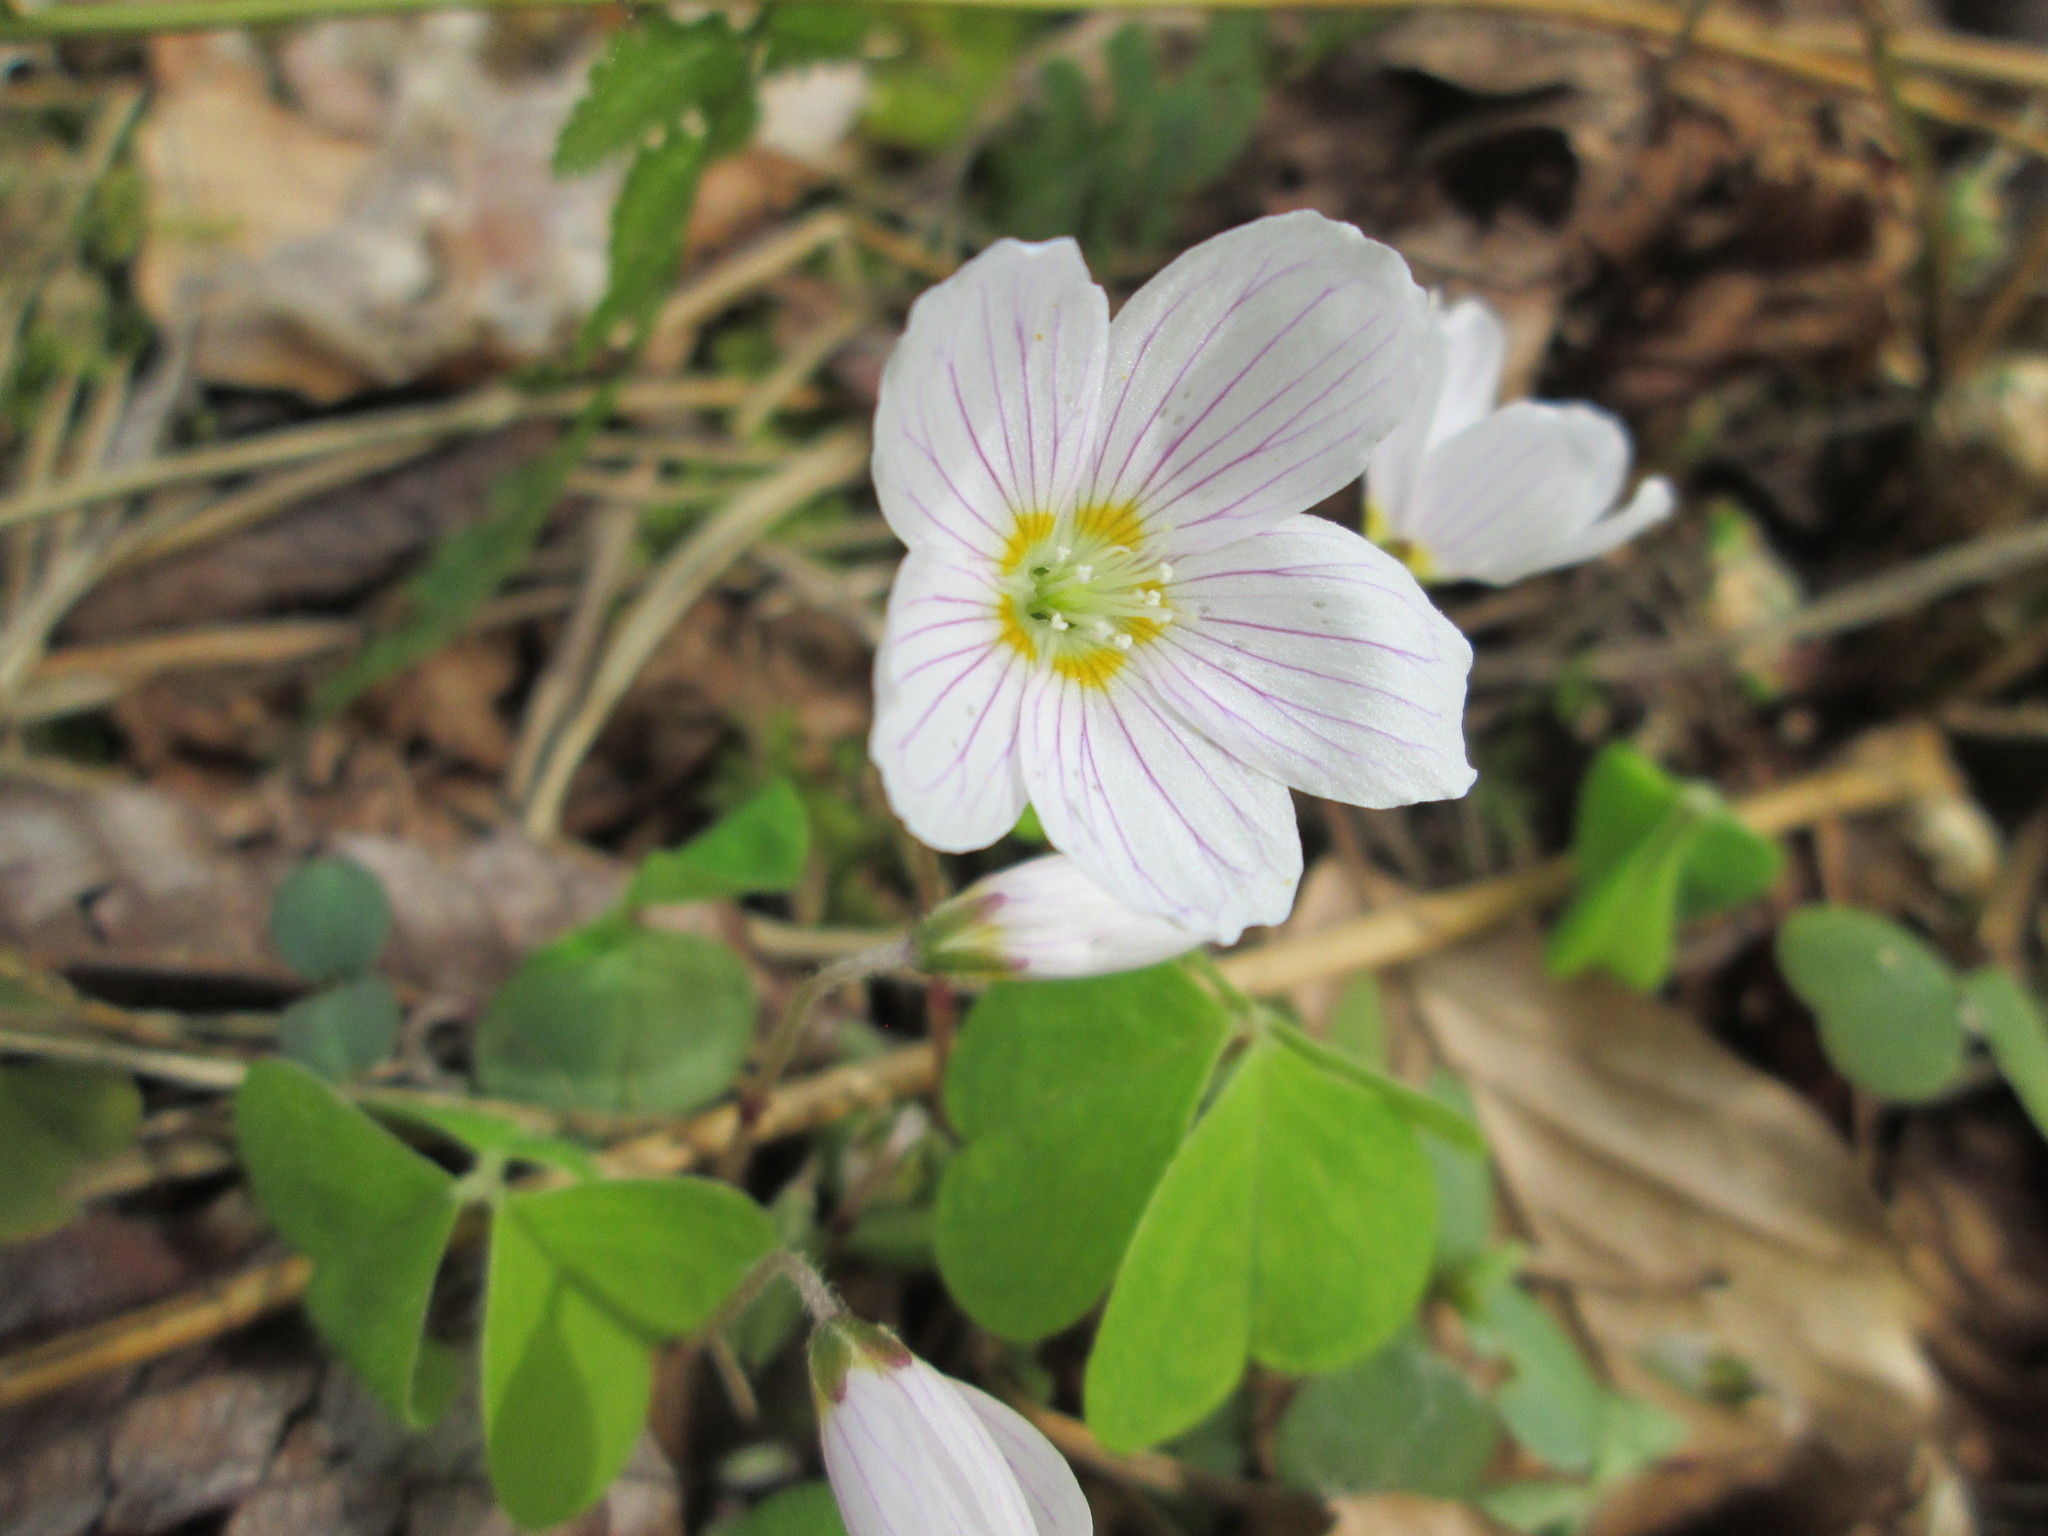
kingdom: Plantae
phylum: Tracheophyta
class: Magnoliopsida
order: Oxalidales
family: Oxalidaceae
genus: Oxalis
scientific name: Oxalis acetosella
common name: Wood-sorrel
